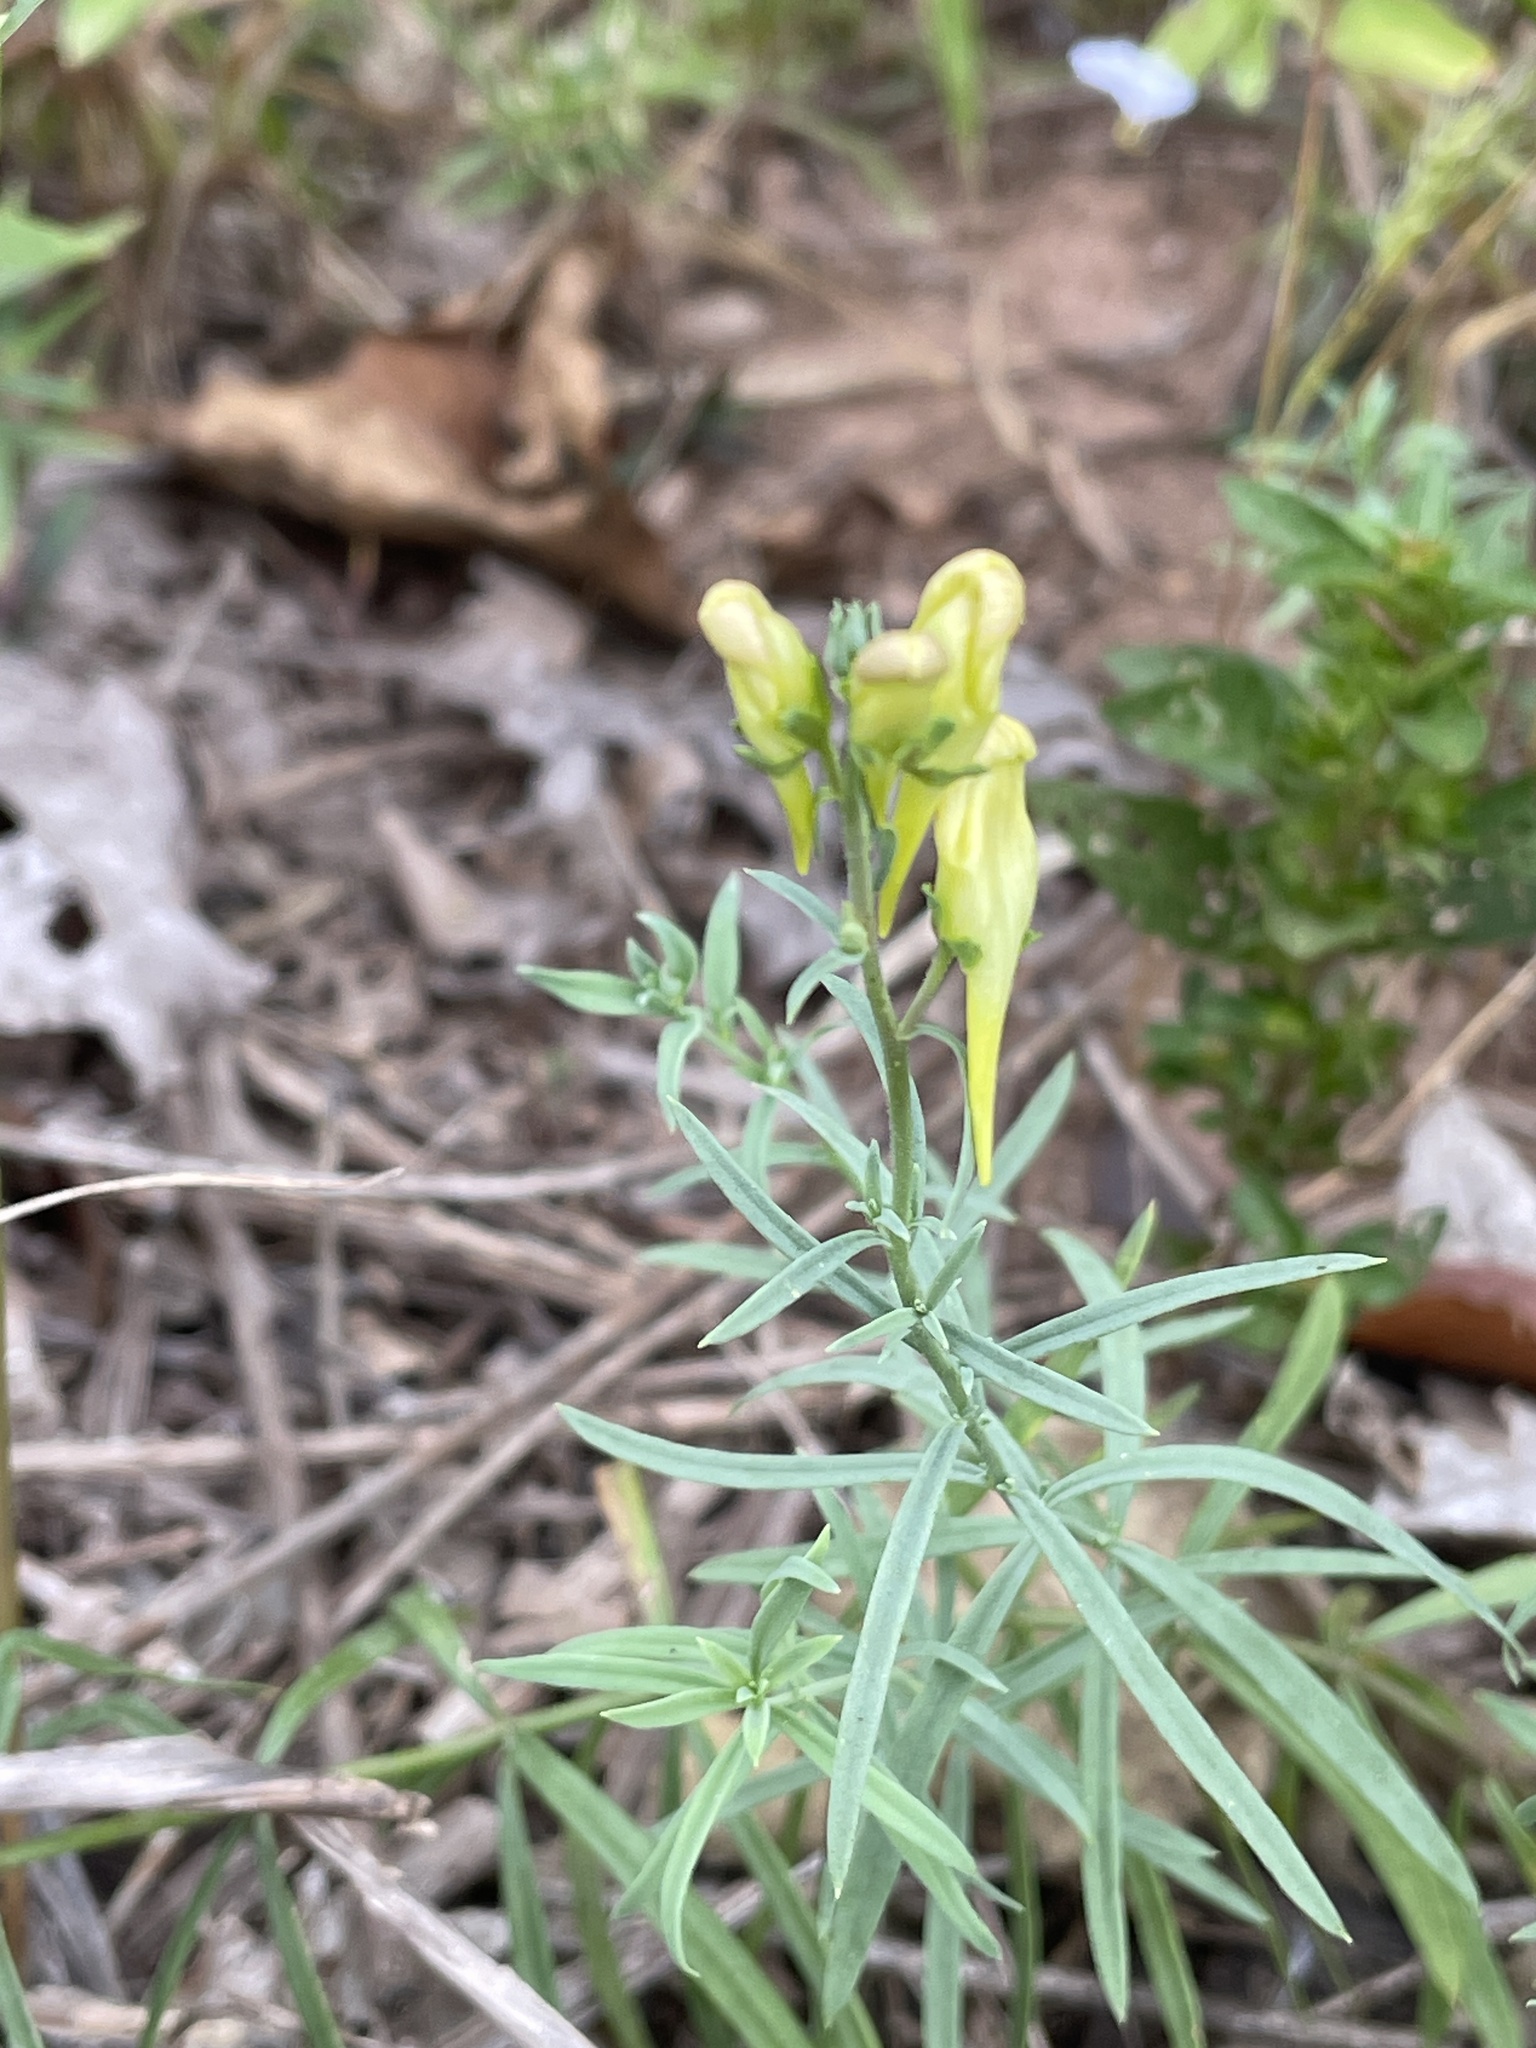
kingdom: Plantae
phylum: Tracheophyta
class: Magnoliopsida
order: Lamiales
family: Plantaginaceae
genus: Linaria
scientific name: Linaria vulgaris
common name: Butter and eggs
